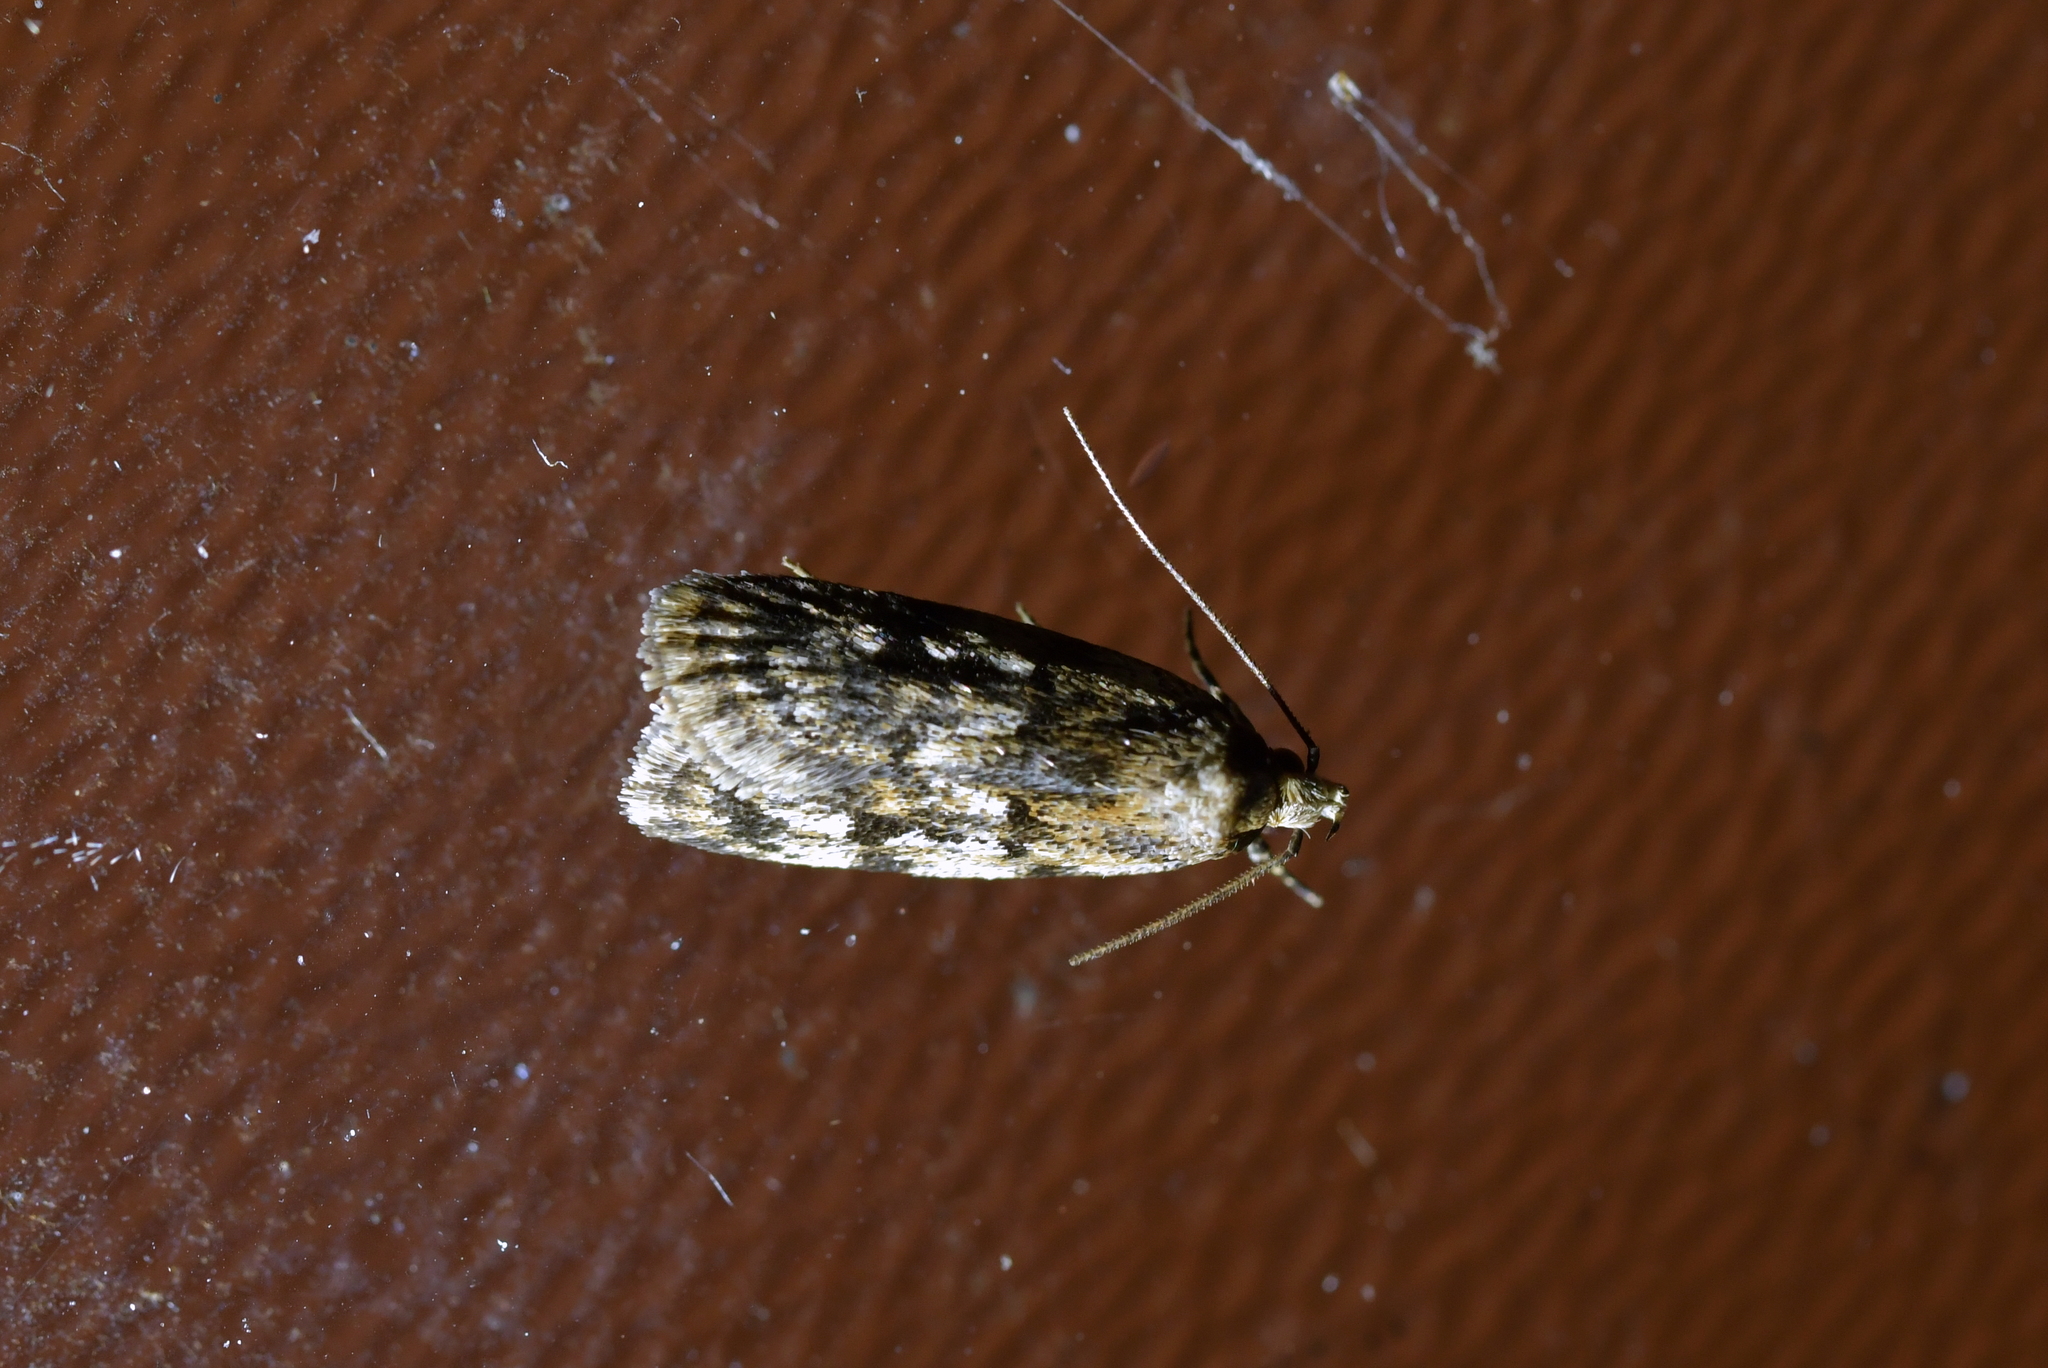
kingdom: Animalia
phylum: Arthropoda
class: Insecta
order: Lepidoptera
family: Oecophoridae
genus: Barea
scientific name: Barea exarcha
